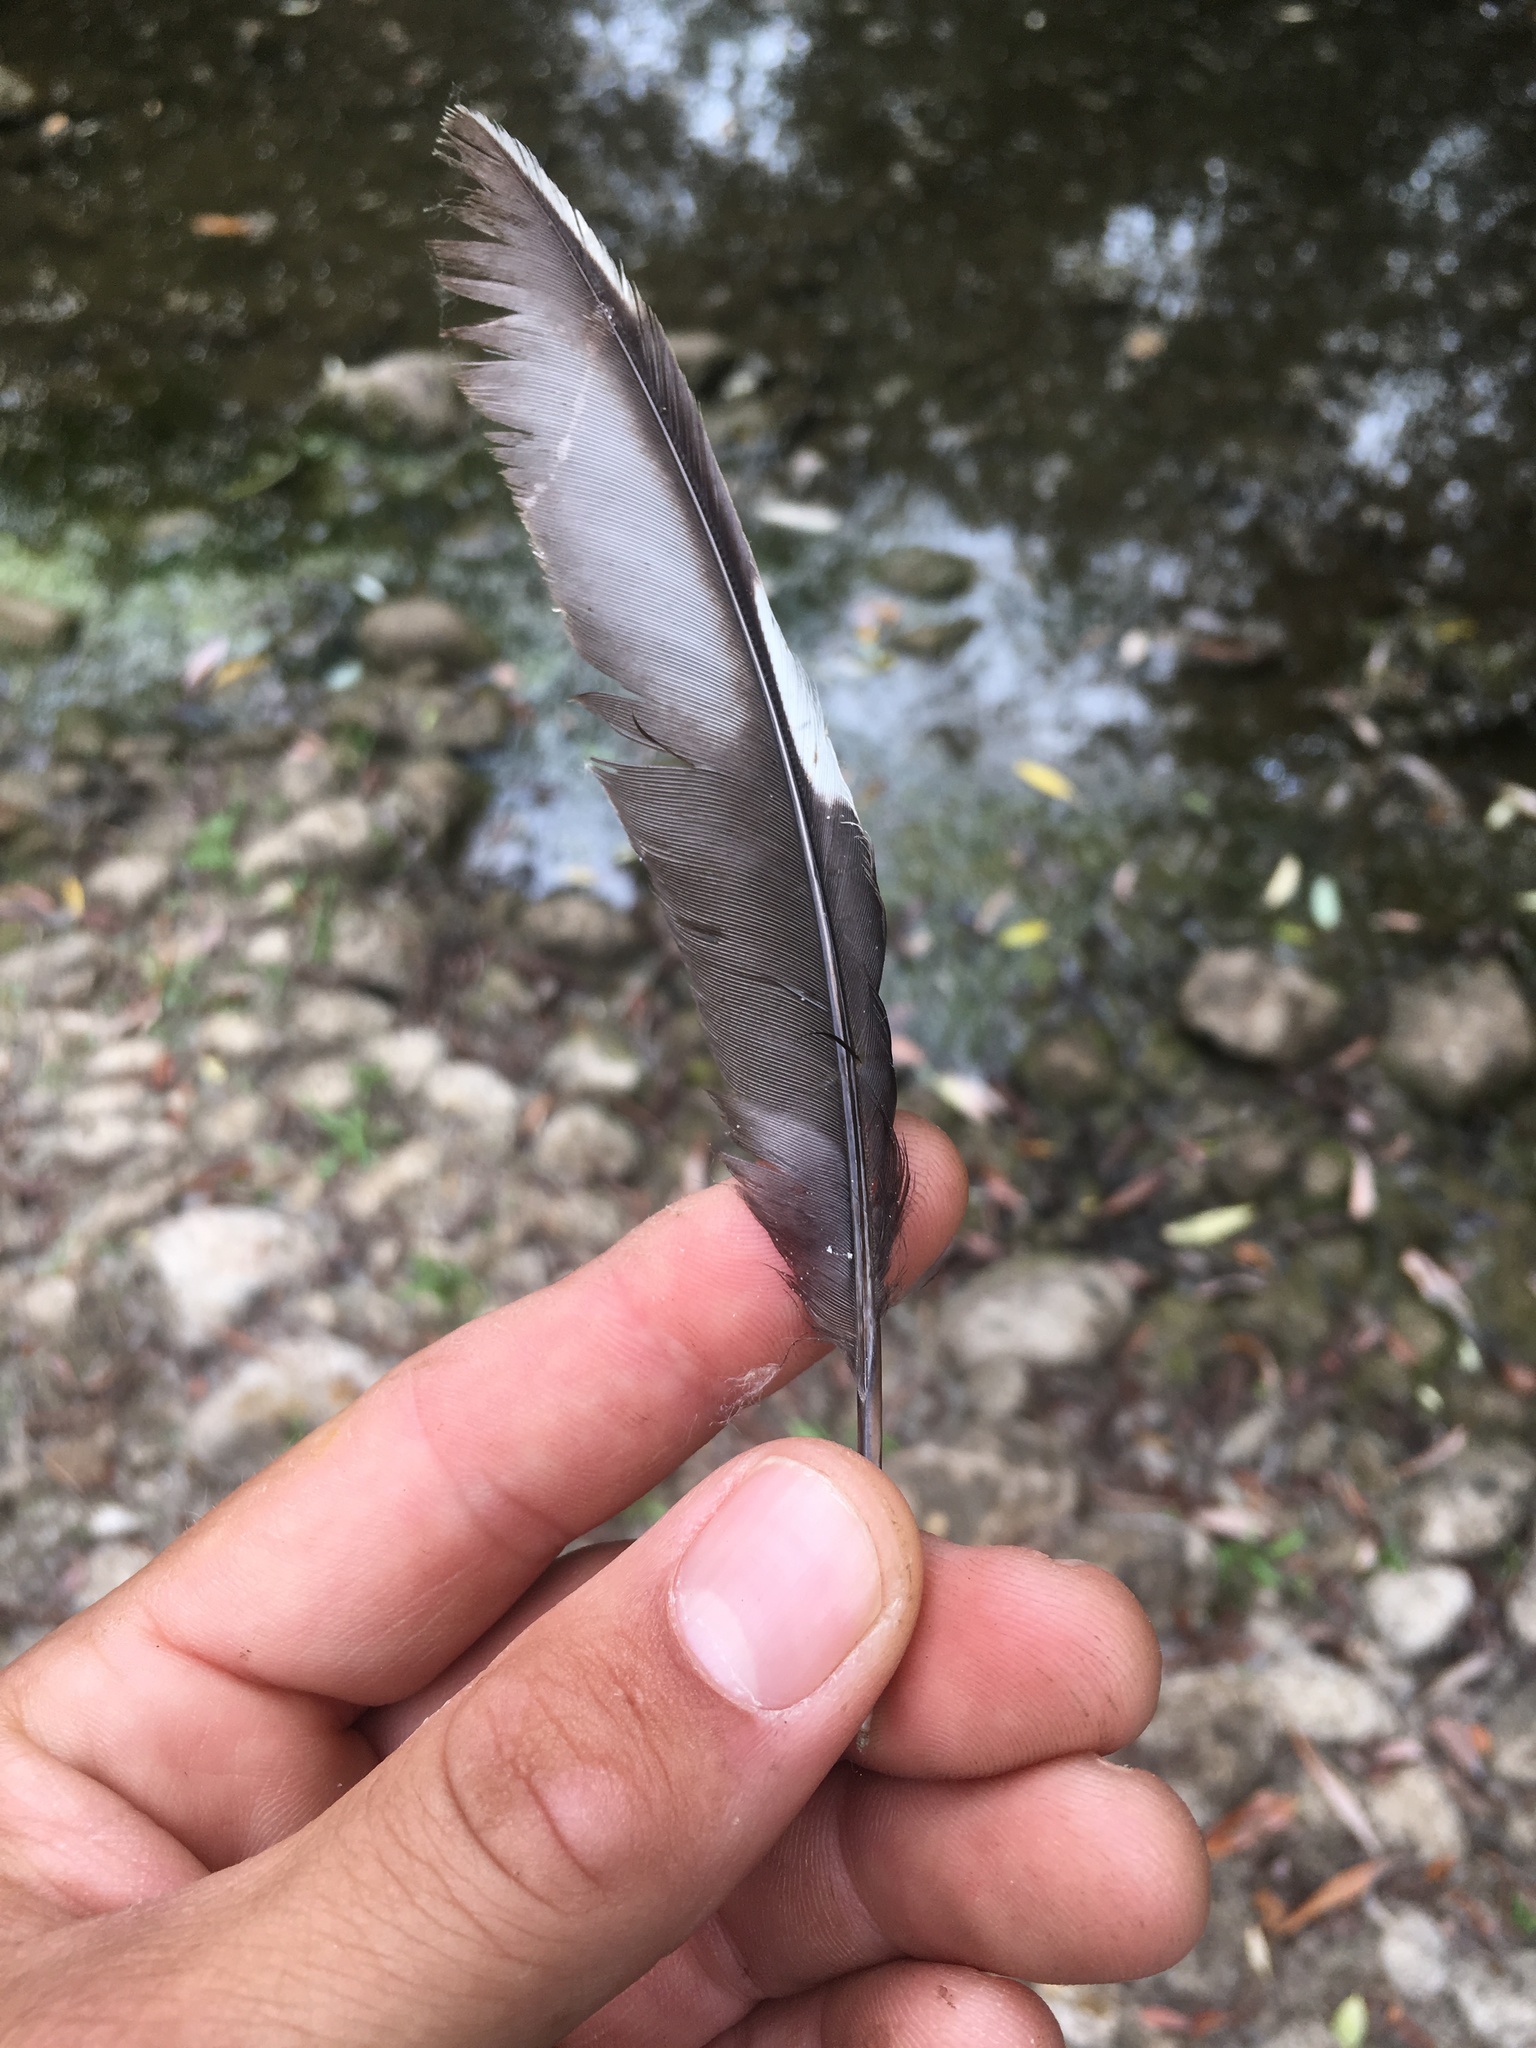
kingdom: Animalia
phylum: Chordata
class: Aves
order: Cuculiformes
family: Cuculidae
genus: Geococcyx
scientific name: Geococcyx californianus
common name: Greater roadrunner
